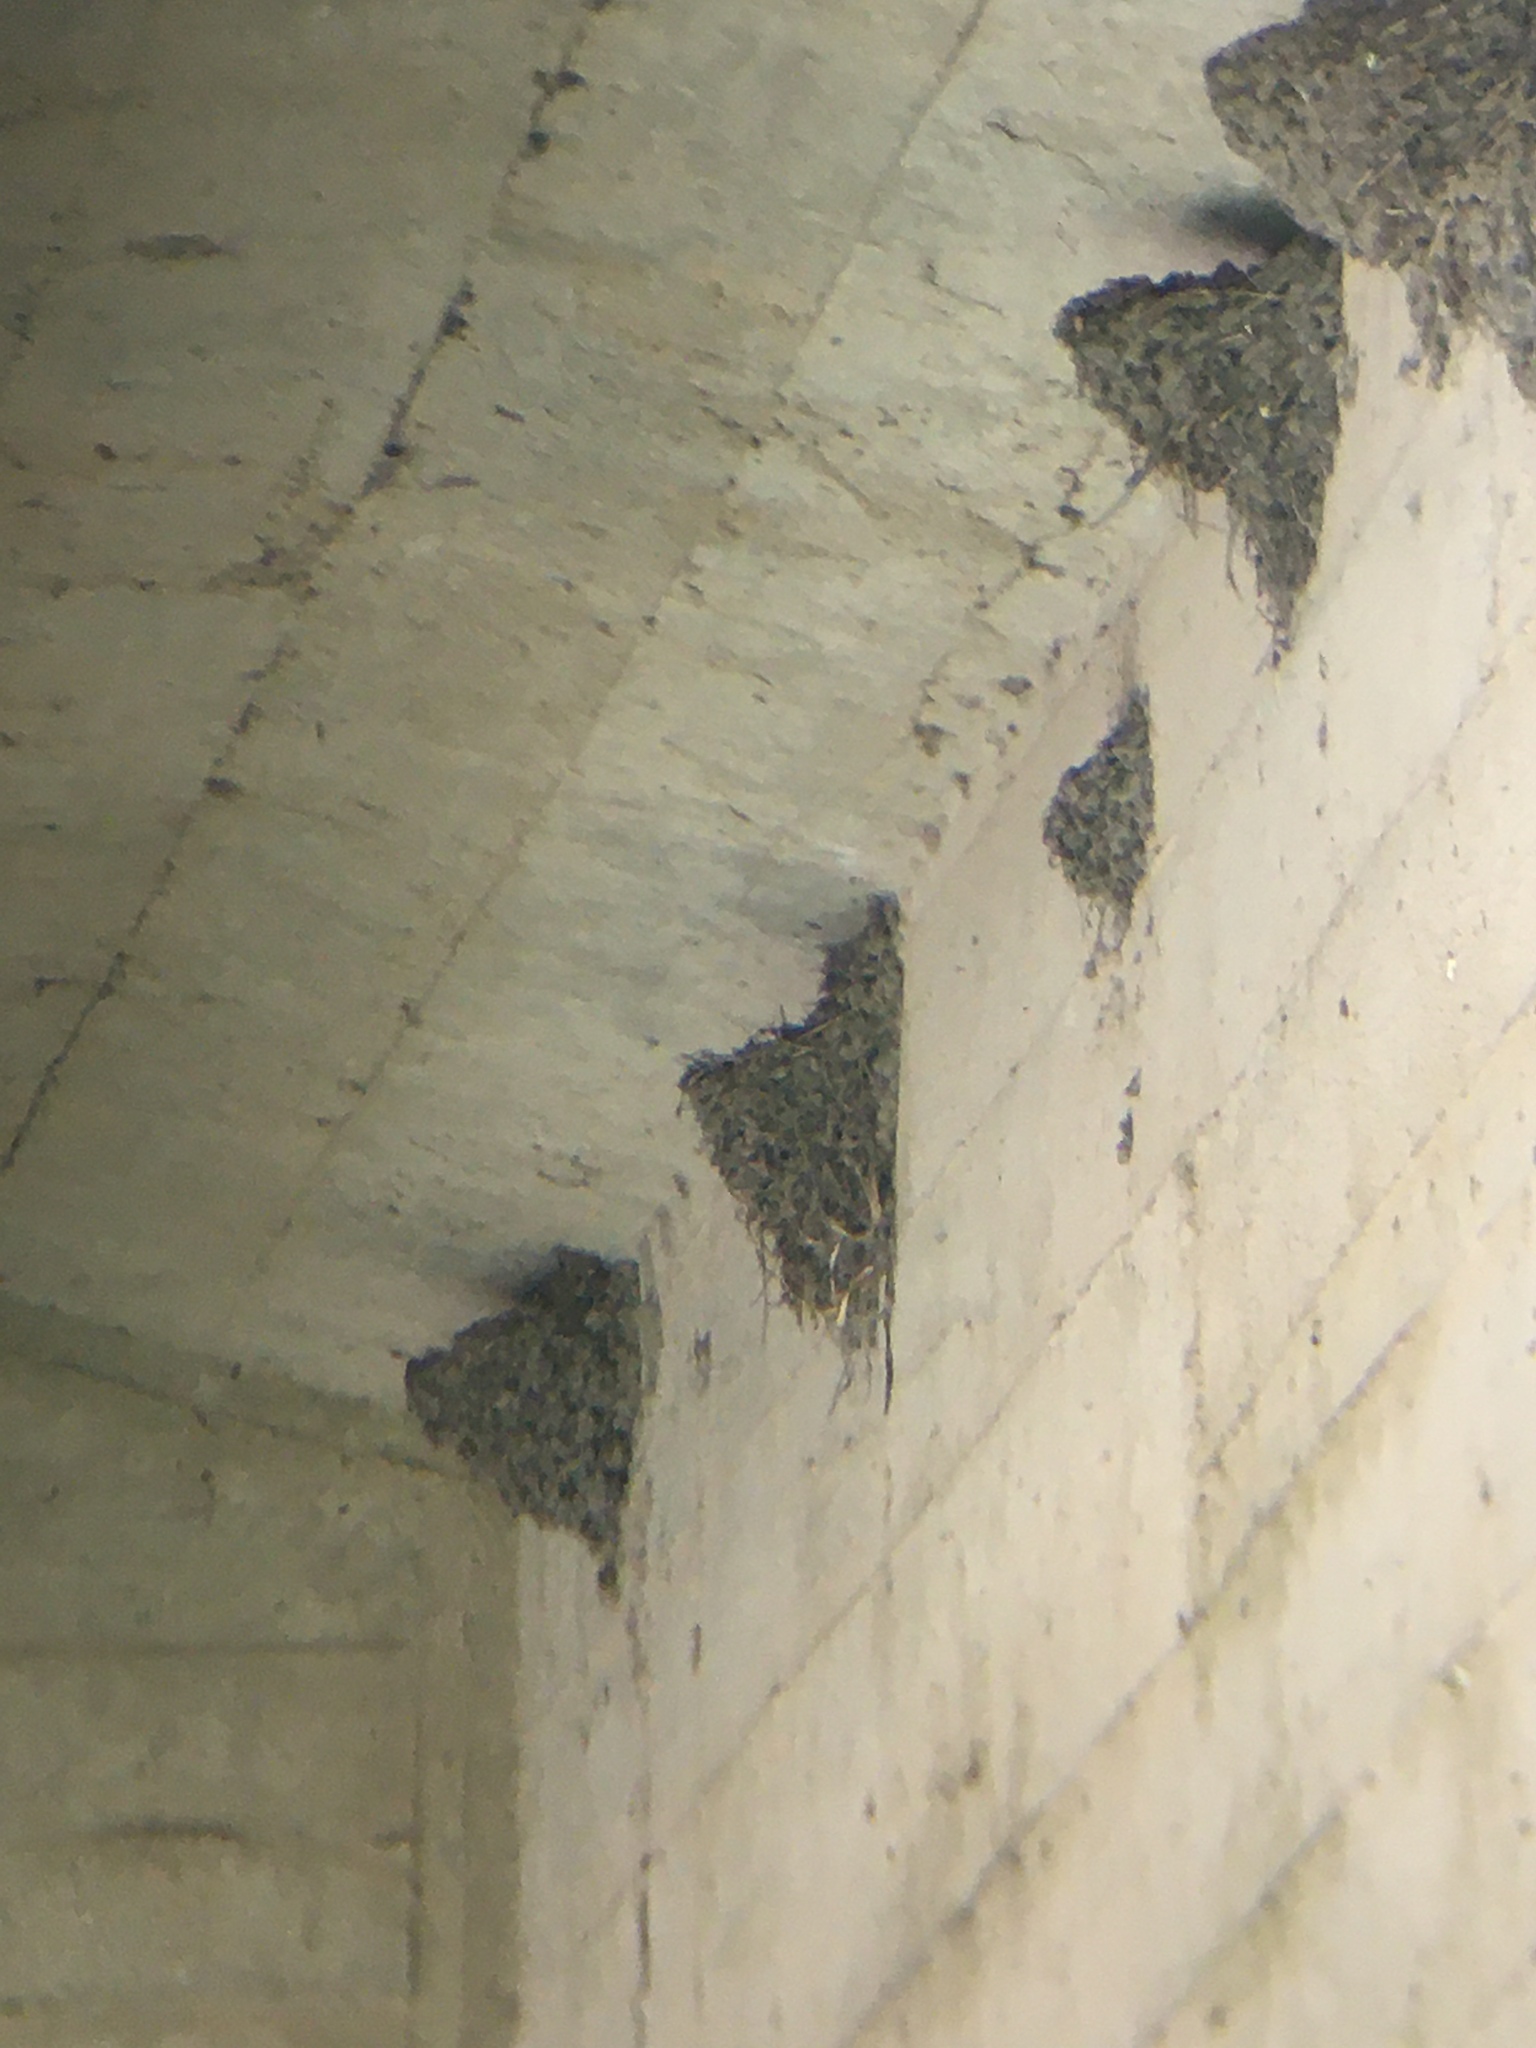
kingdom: Animalia
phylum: Chordata
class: Aves
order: Passeriformes
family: Hirundinidae
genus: Hirundo
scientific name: Hirundo rustica
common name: Barn swallow
